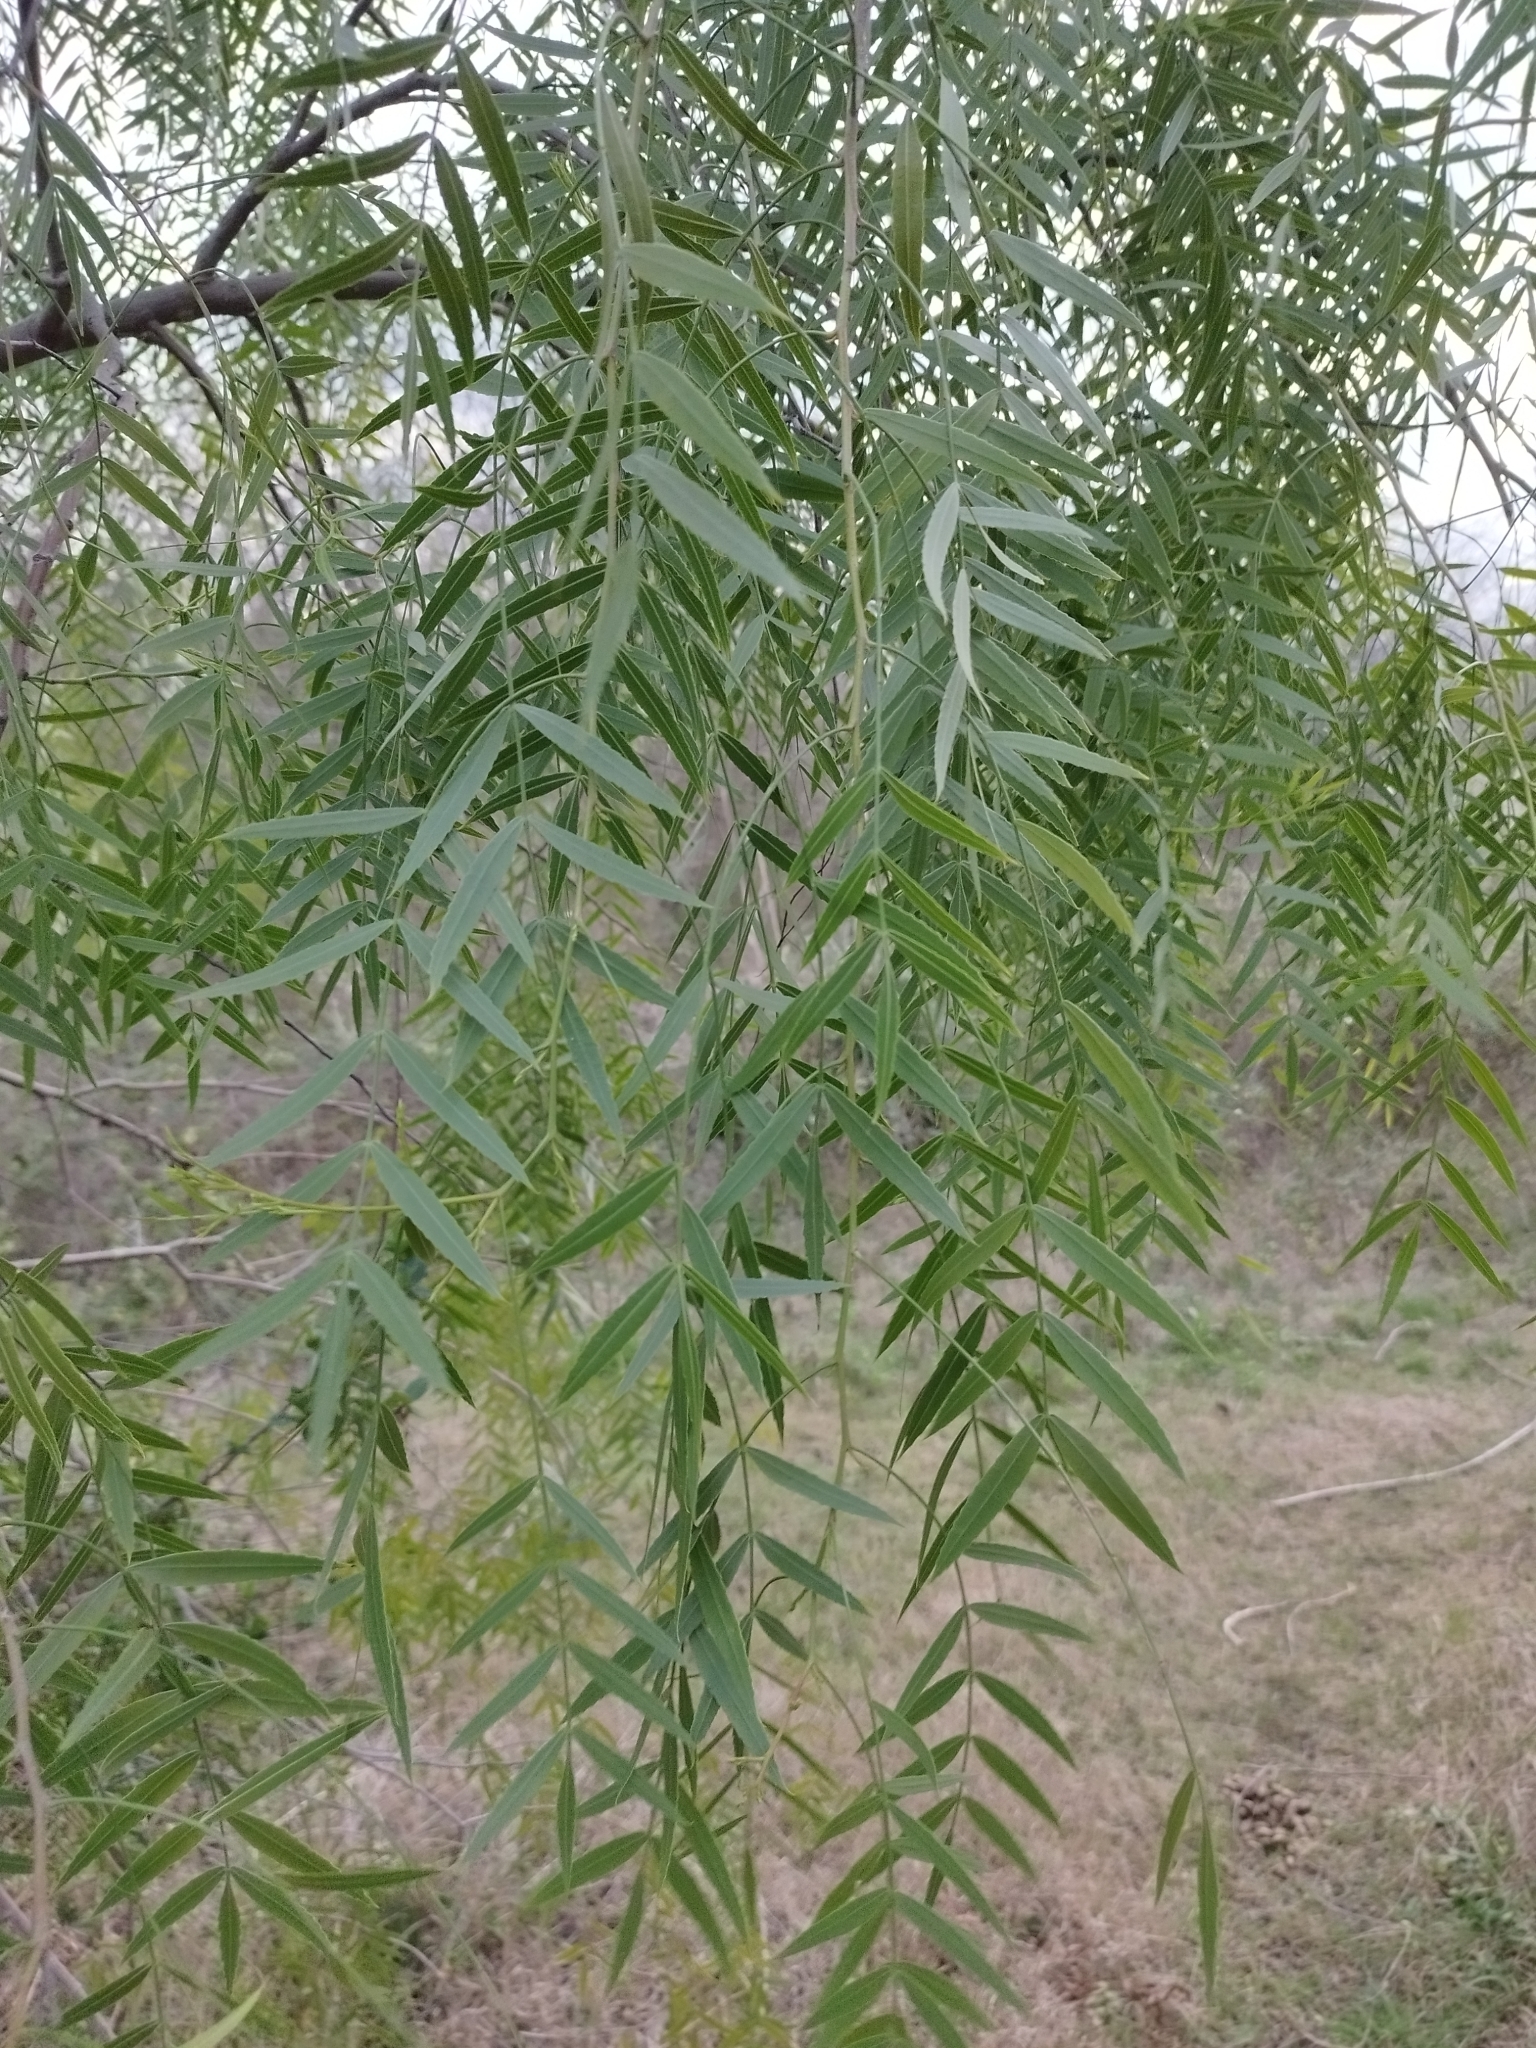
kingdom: Plantae
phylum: Tracheophyta
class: Magnoliopsida
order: Sapindales
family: Anacardiaceae
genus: Schinus
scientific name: Schinus molle
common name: Peruvian peppertree
